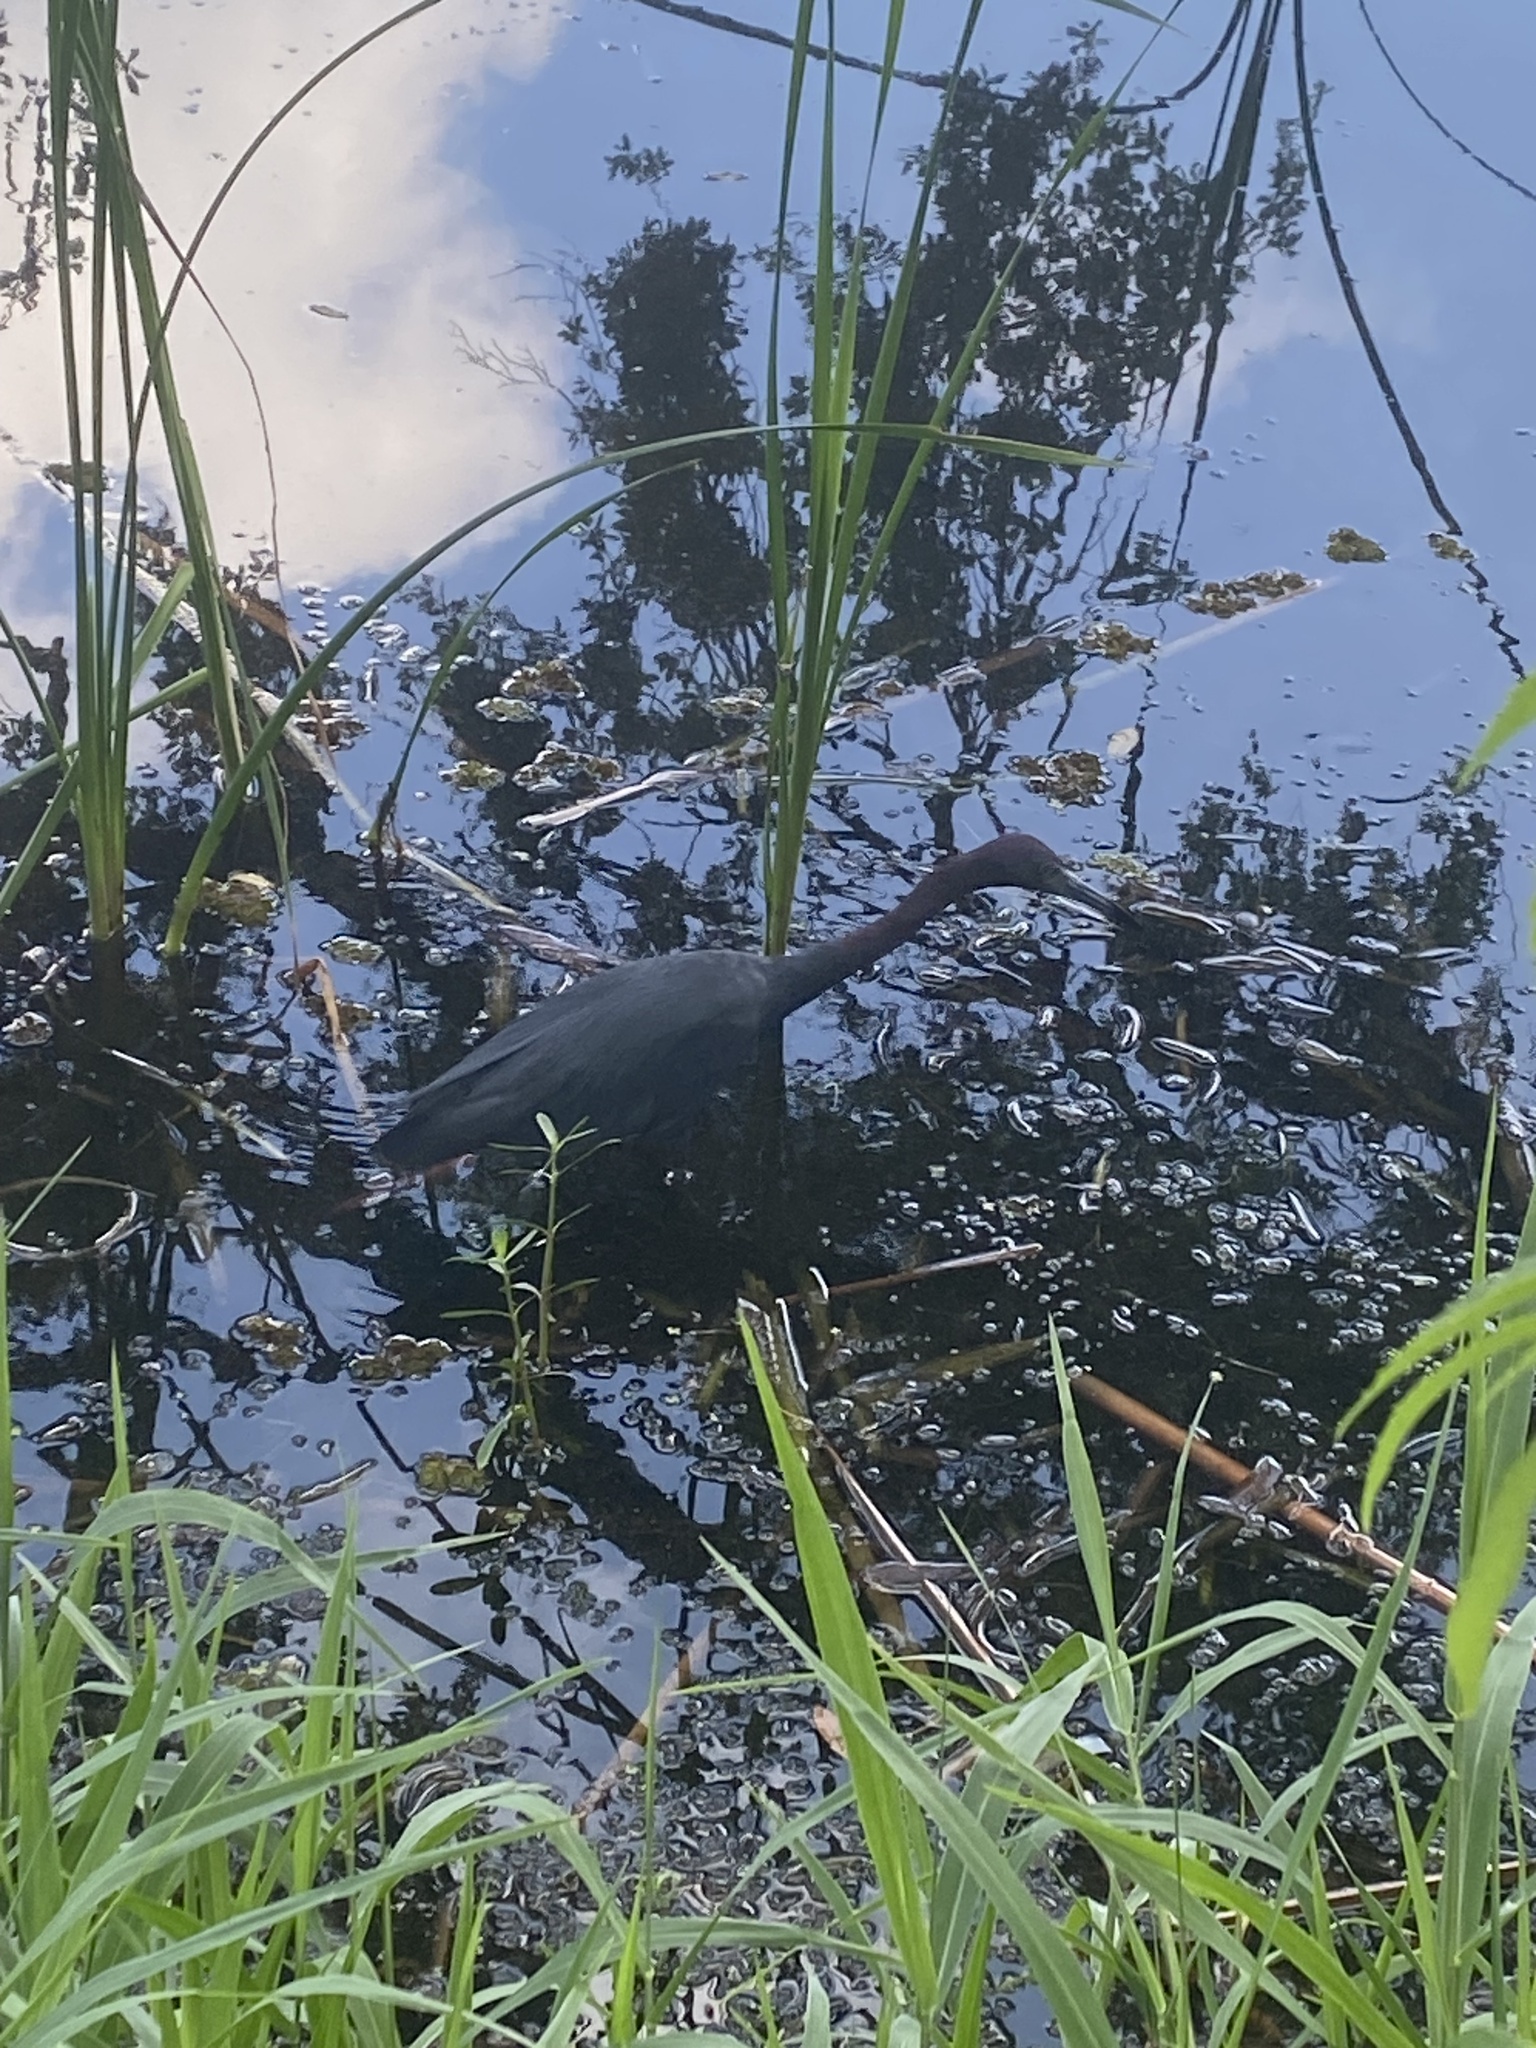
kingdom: Animalia
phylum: Chordata
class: Aves
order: Pelecaniformes
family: Ardeidae
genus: Egretta
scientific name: Egretta caerulea
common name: Little blue heron
